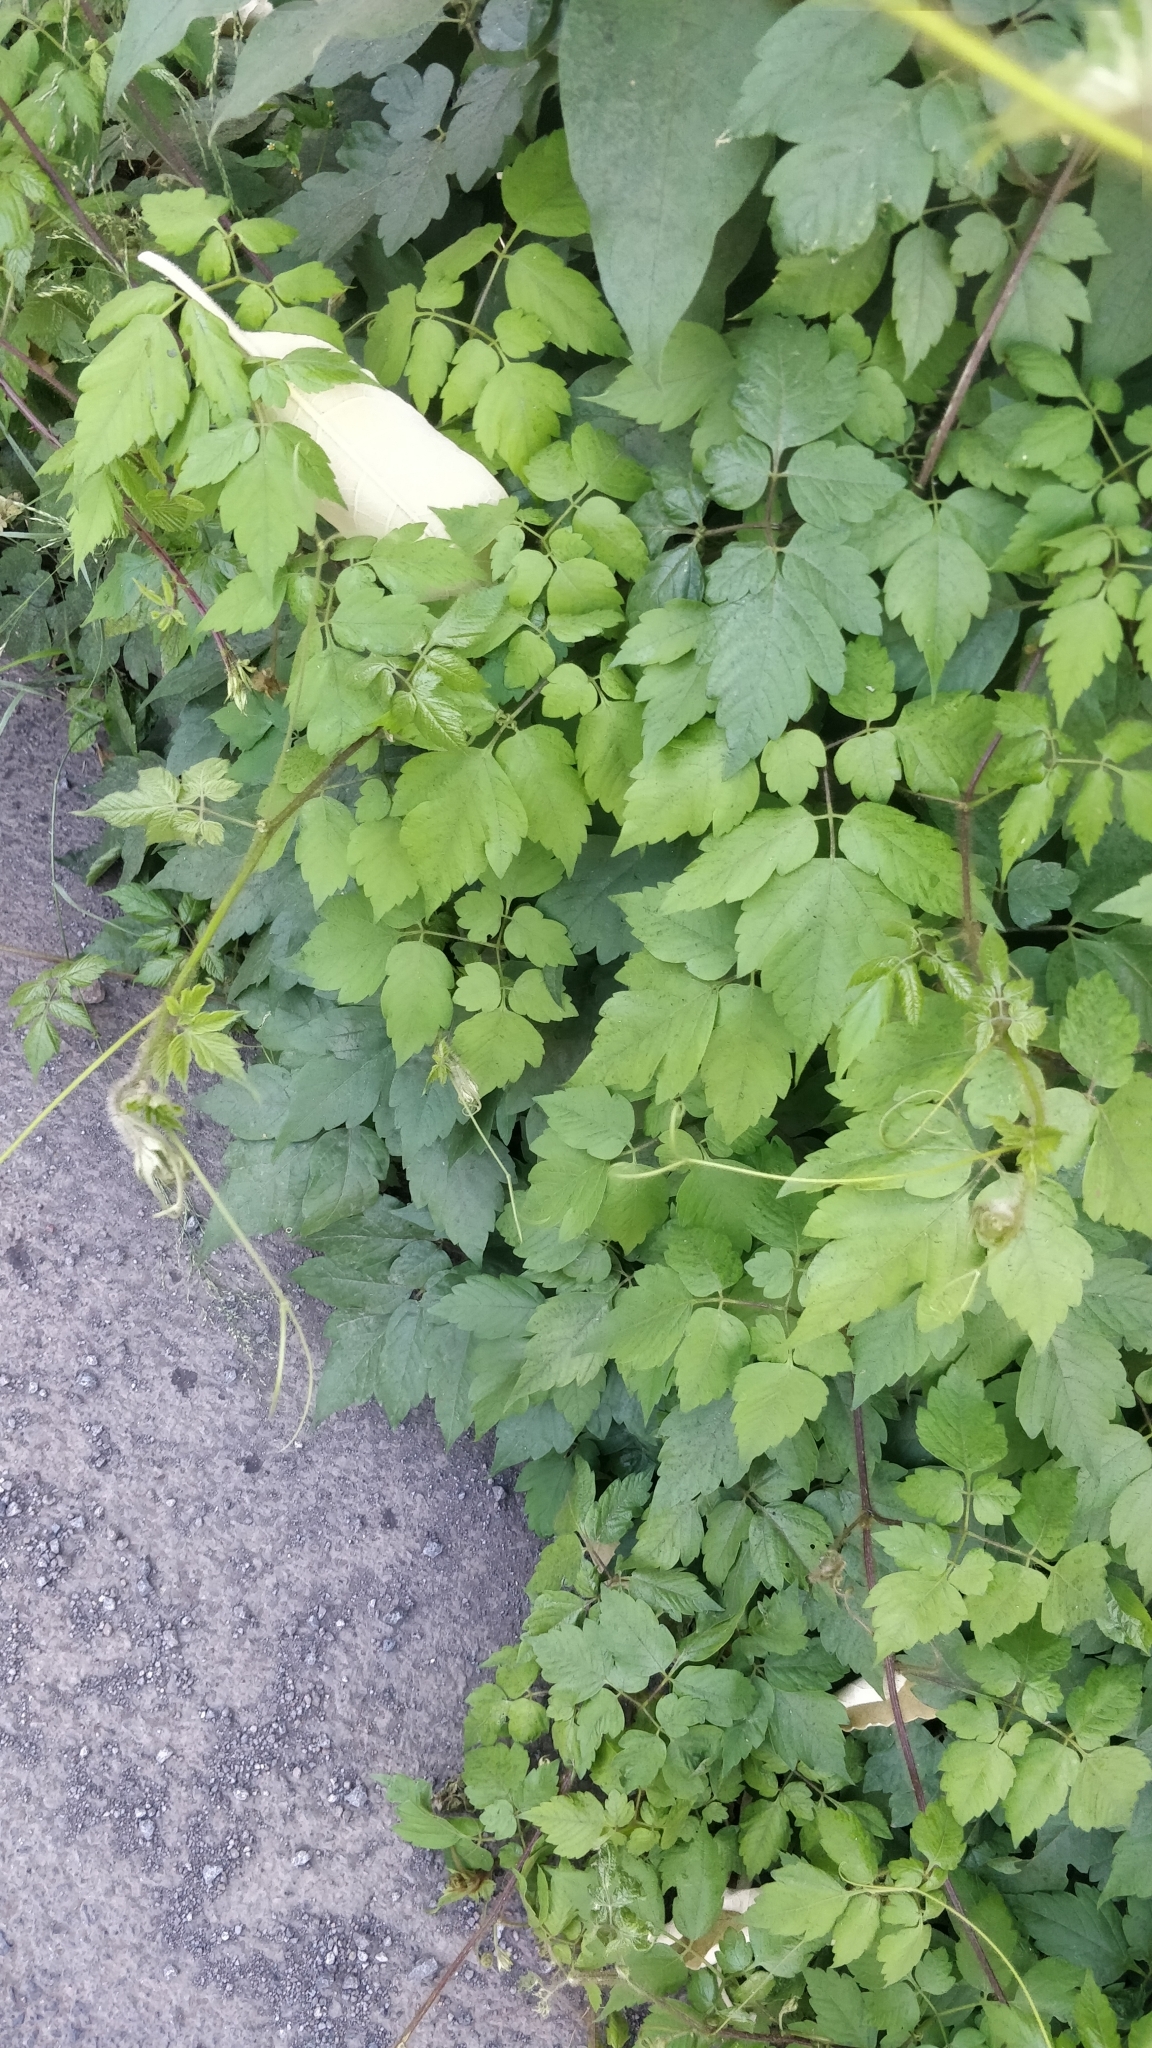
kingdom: Plantae
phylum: Tracheophyta
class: Magnoliopsida
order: Sapindales
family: Sapindaceae
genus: Cardiospermum
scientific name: Cardiospermum grandiflorum
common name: Balloon vine
